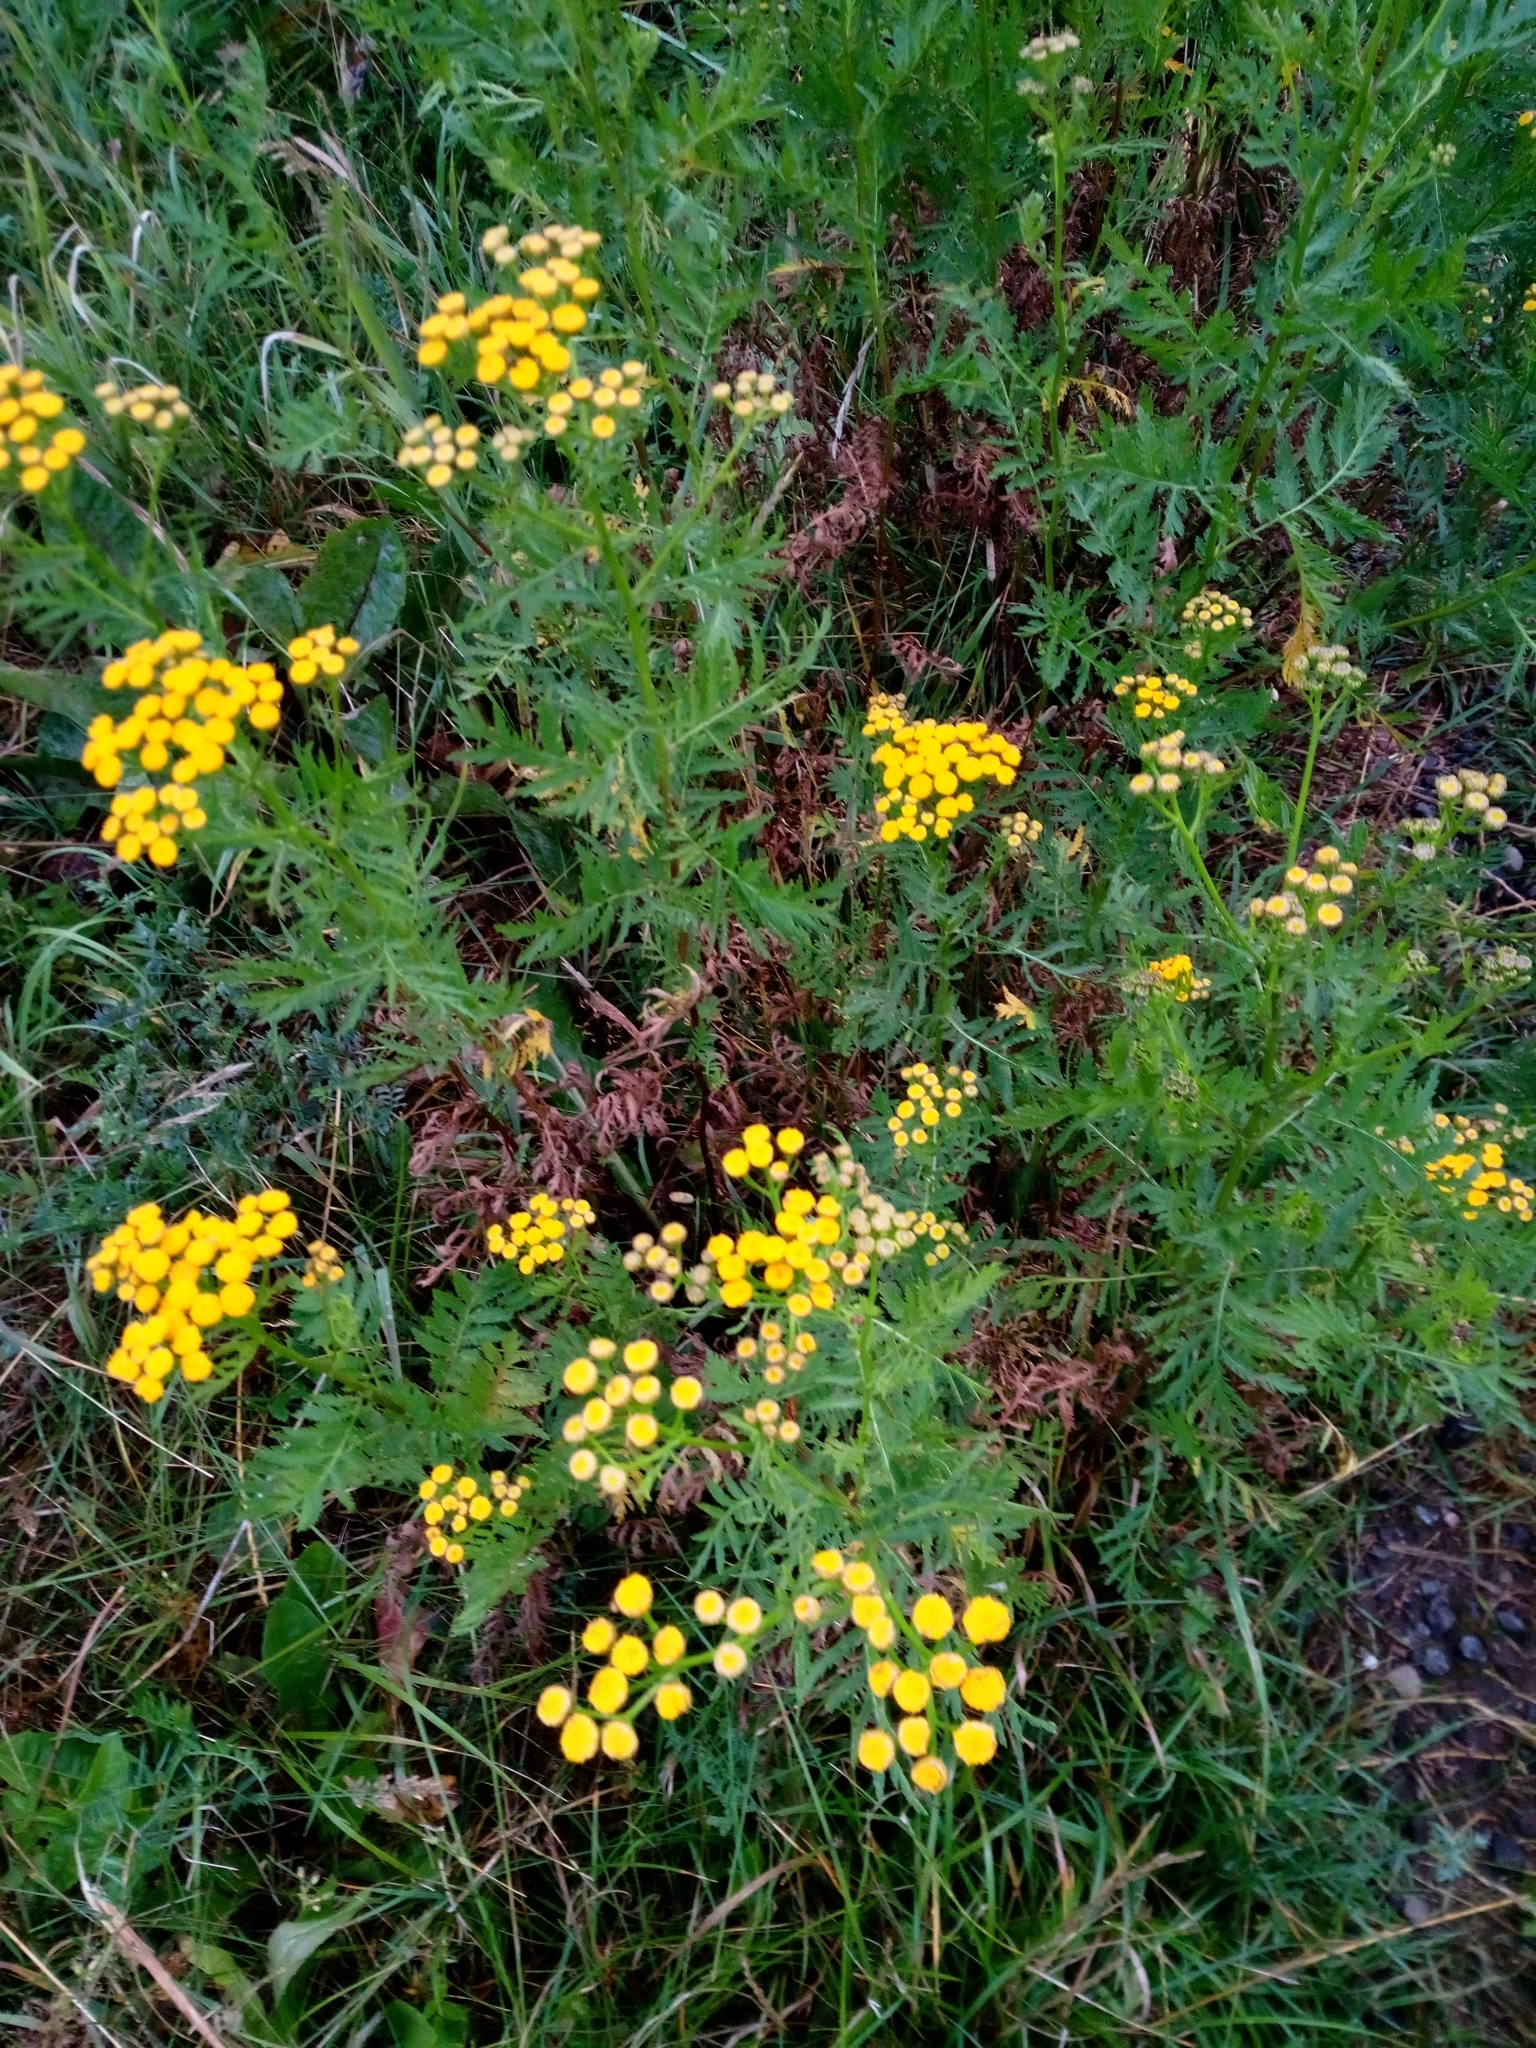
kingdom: Plantae
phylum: Tracheophyta
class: Magnoliopsida
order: Asterales
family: Asteraceae
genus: Tanacetum
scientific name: Tanacetum vulgare
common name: Common tansy
